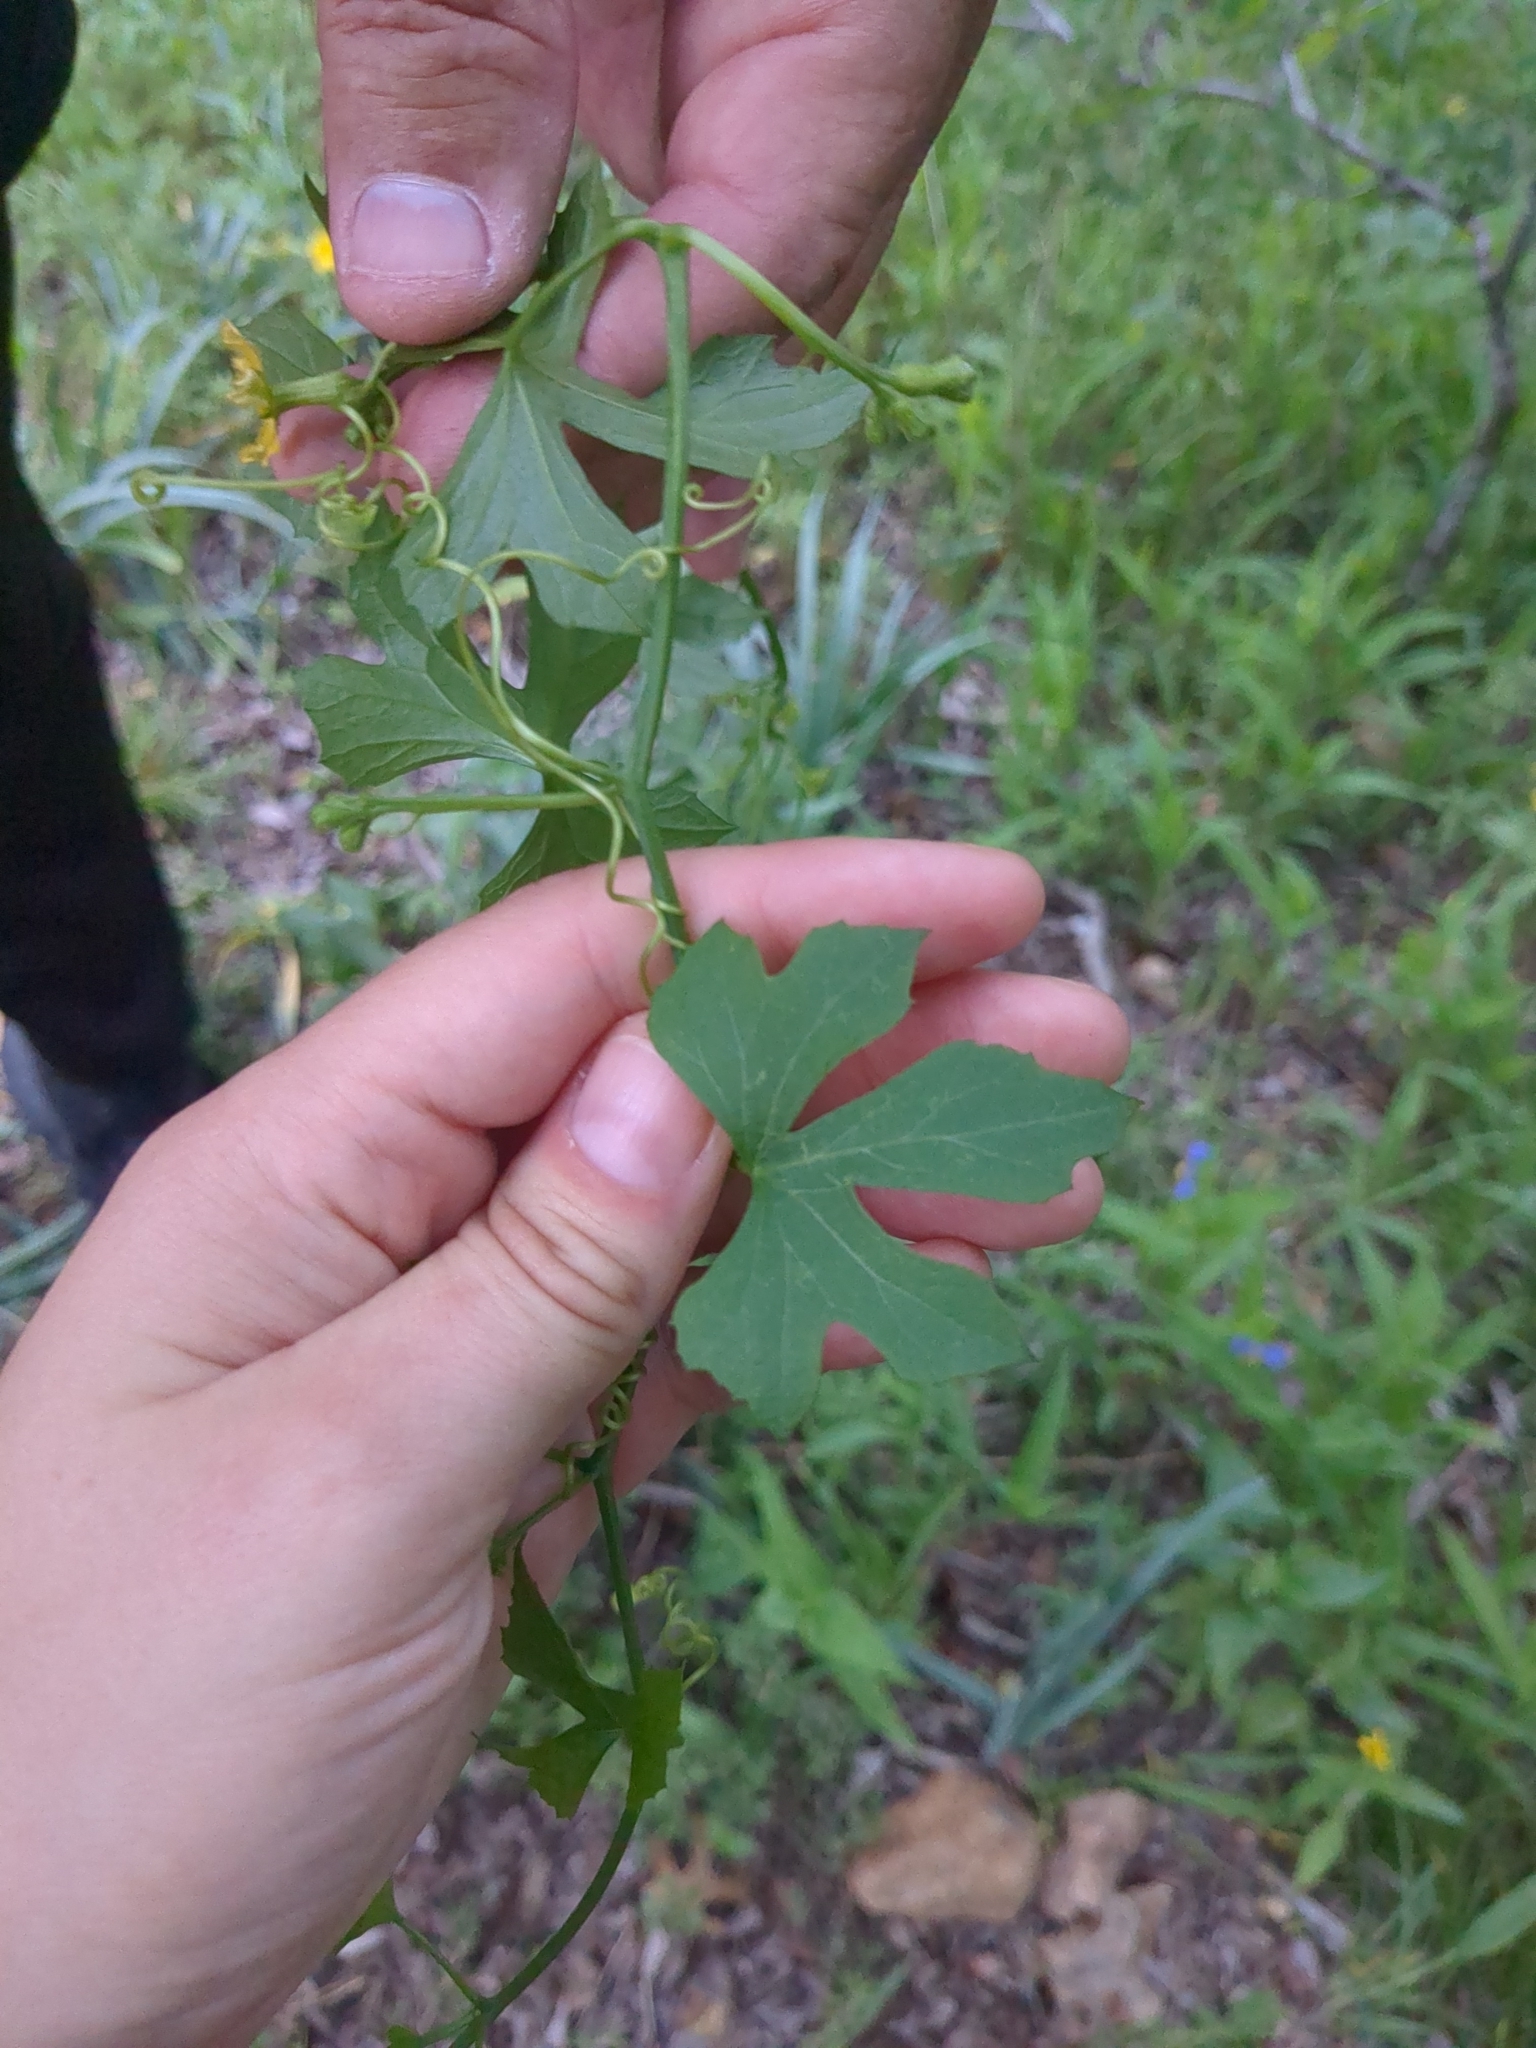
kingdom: Plantae
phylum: Tracheophyta
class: Magnoliopsida
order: Cucurbitales
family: Cucurbitaceae
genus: Ibervillea
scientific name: Ibervillea lindheimeri
